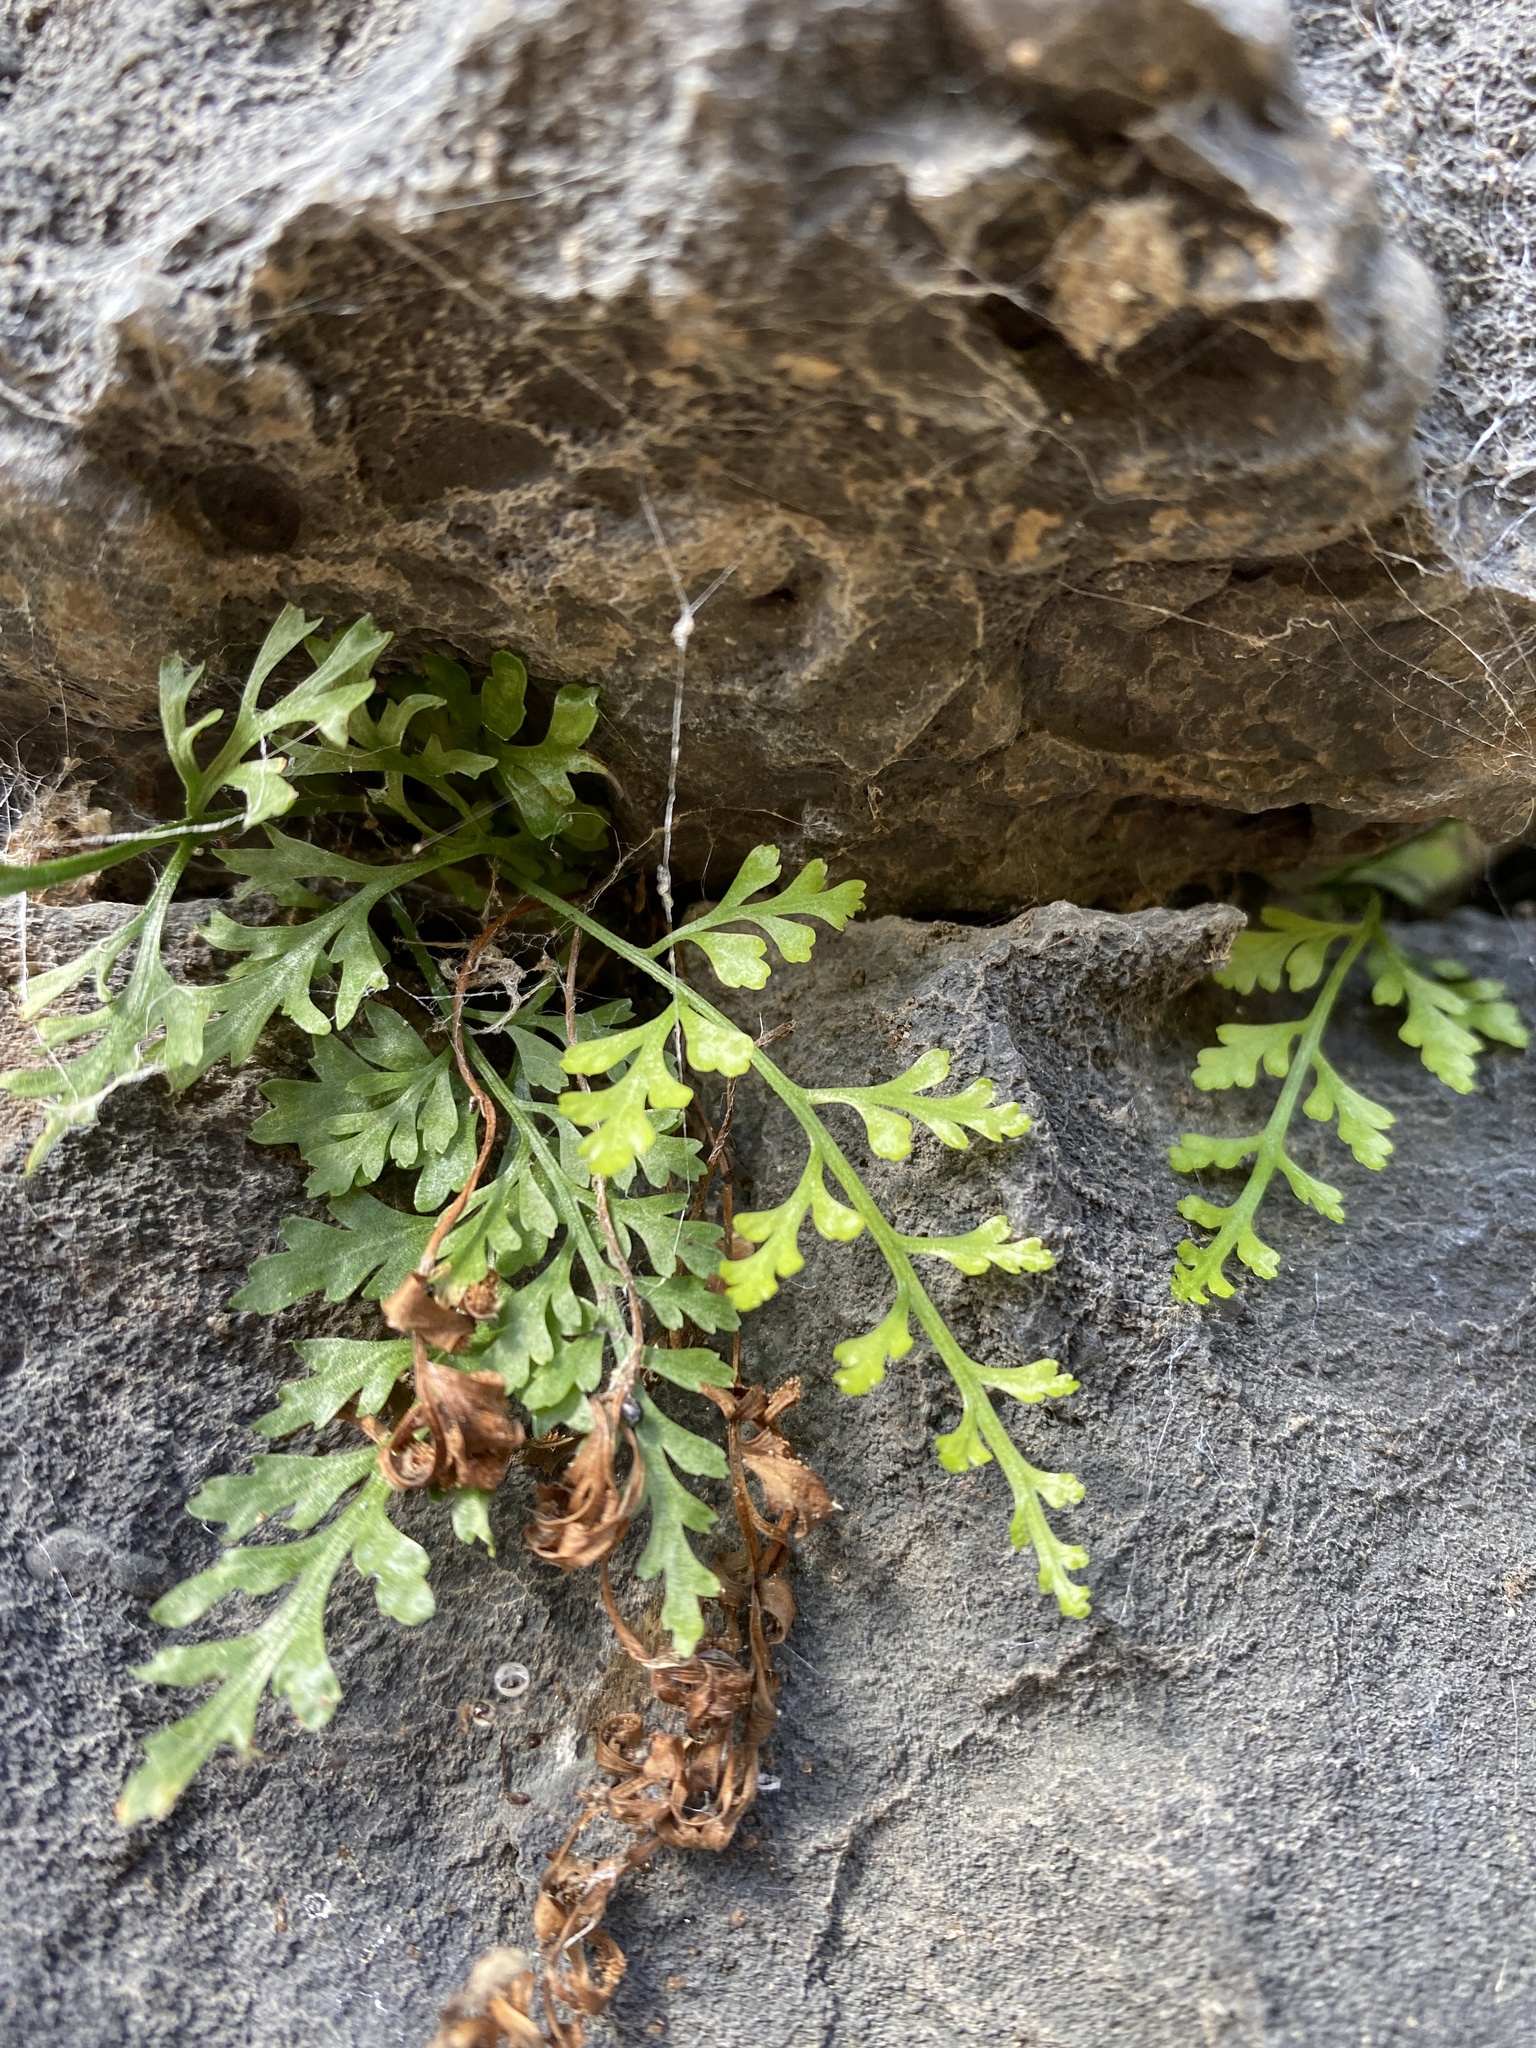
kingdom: Plantae
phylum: Tracheophyta
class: Polypodiopsida
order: Polypodiales
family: Aspleniaceae
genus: Asplenium
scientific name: Asplenium montanum
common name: Mountain spleenwort
